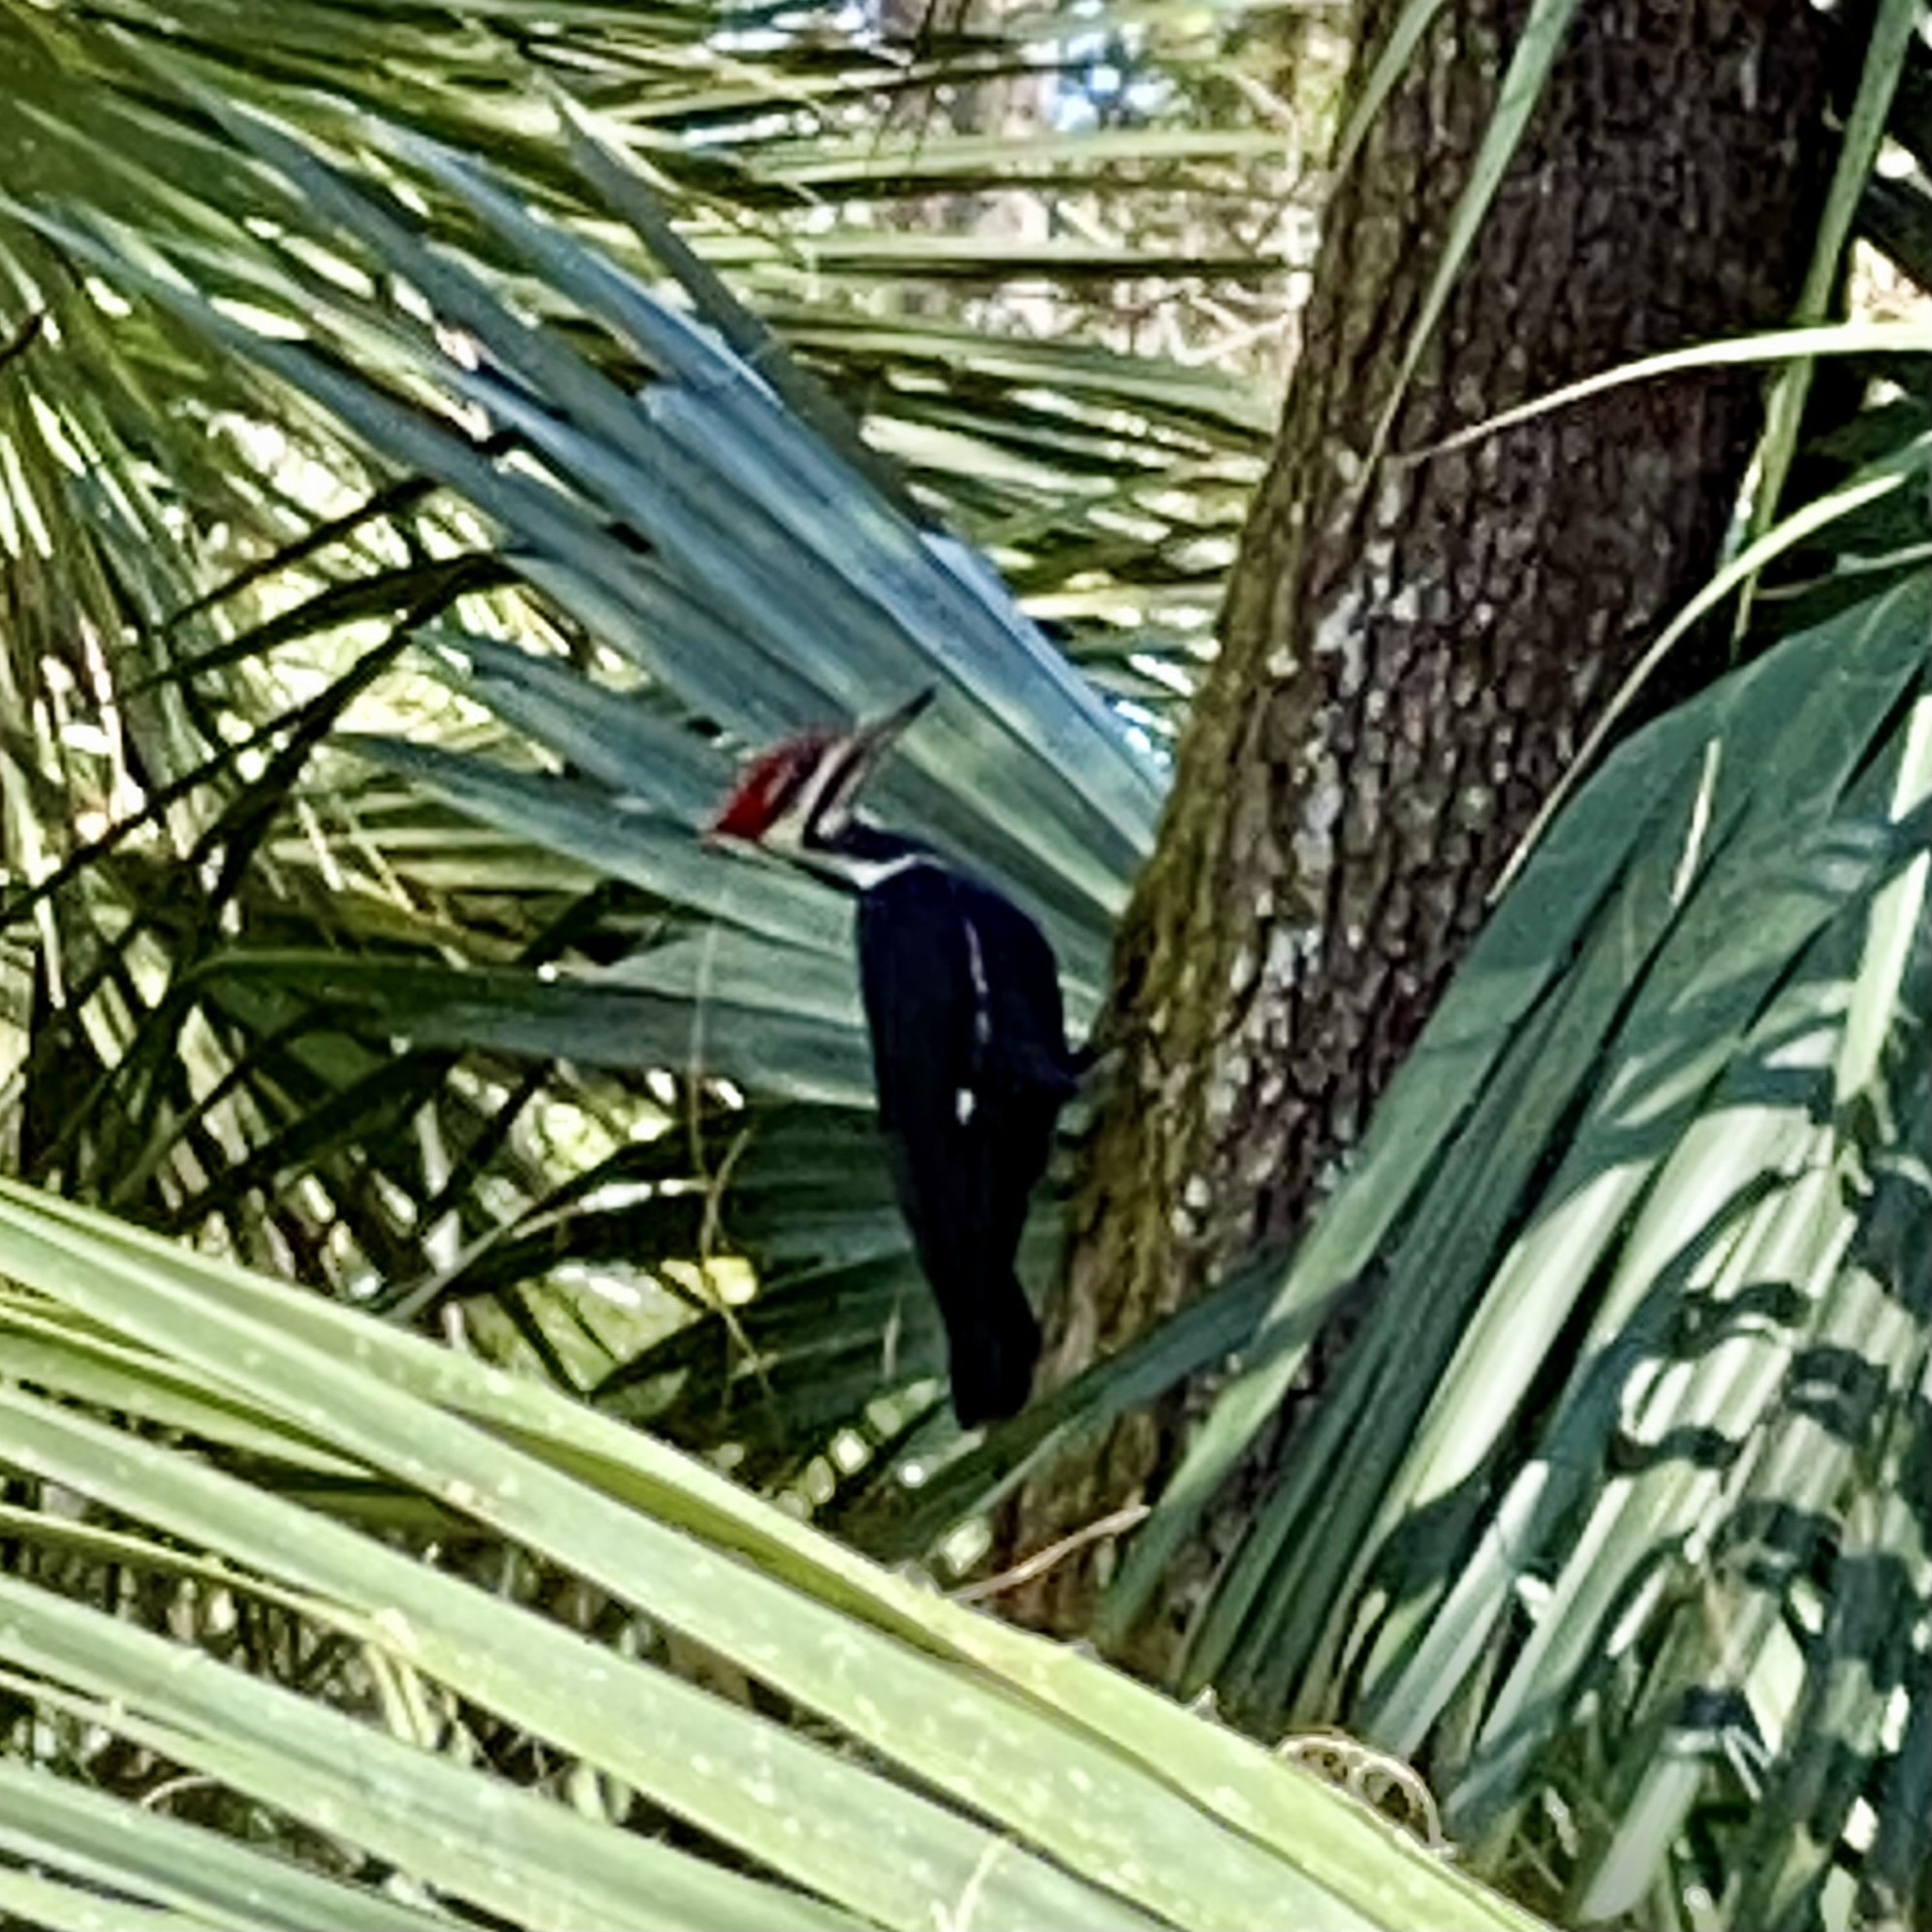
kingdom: Animalia
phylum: Chordata
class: Aves
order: Piciformes
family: Picidae
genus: Dryocopus
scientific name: Dryocopus pileatus
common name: Pileated woodpecker
